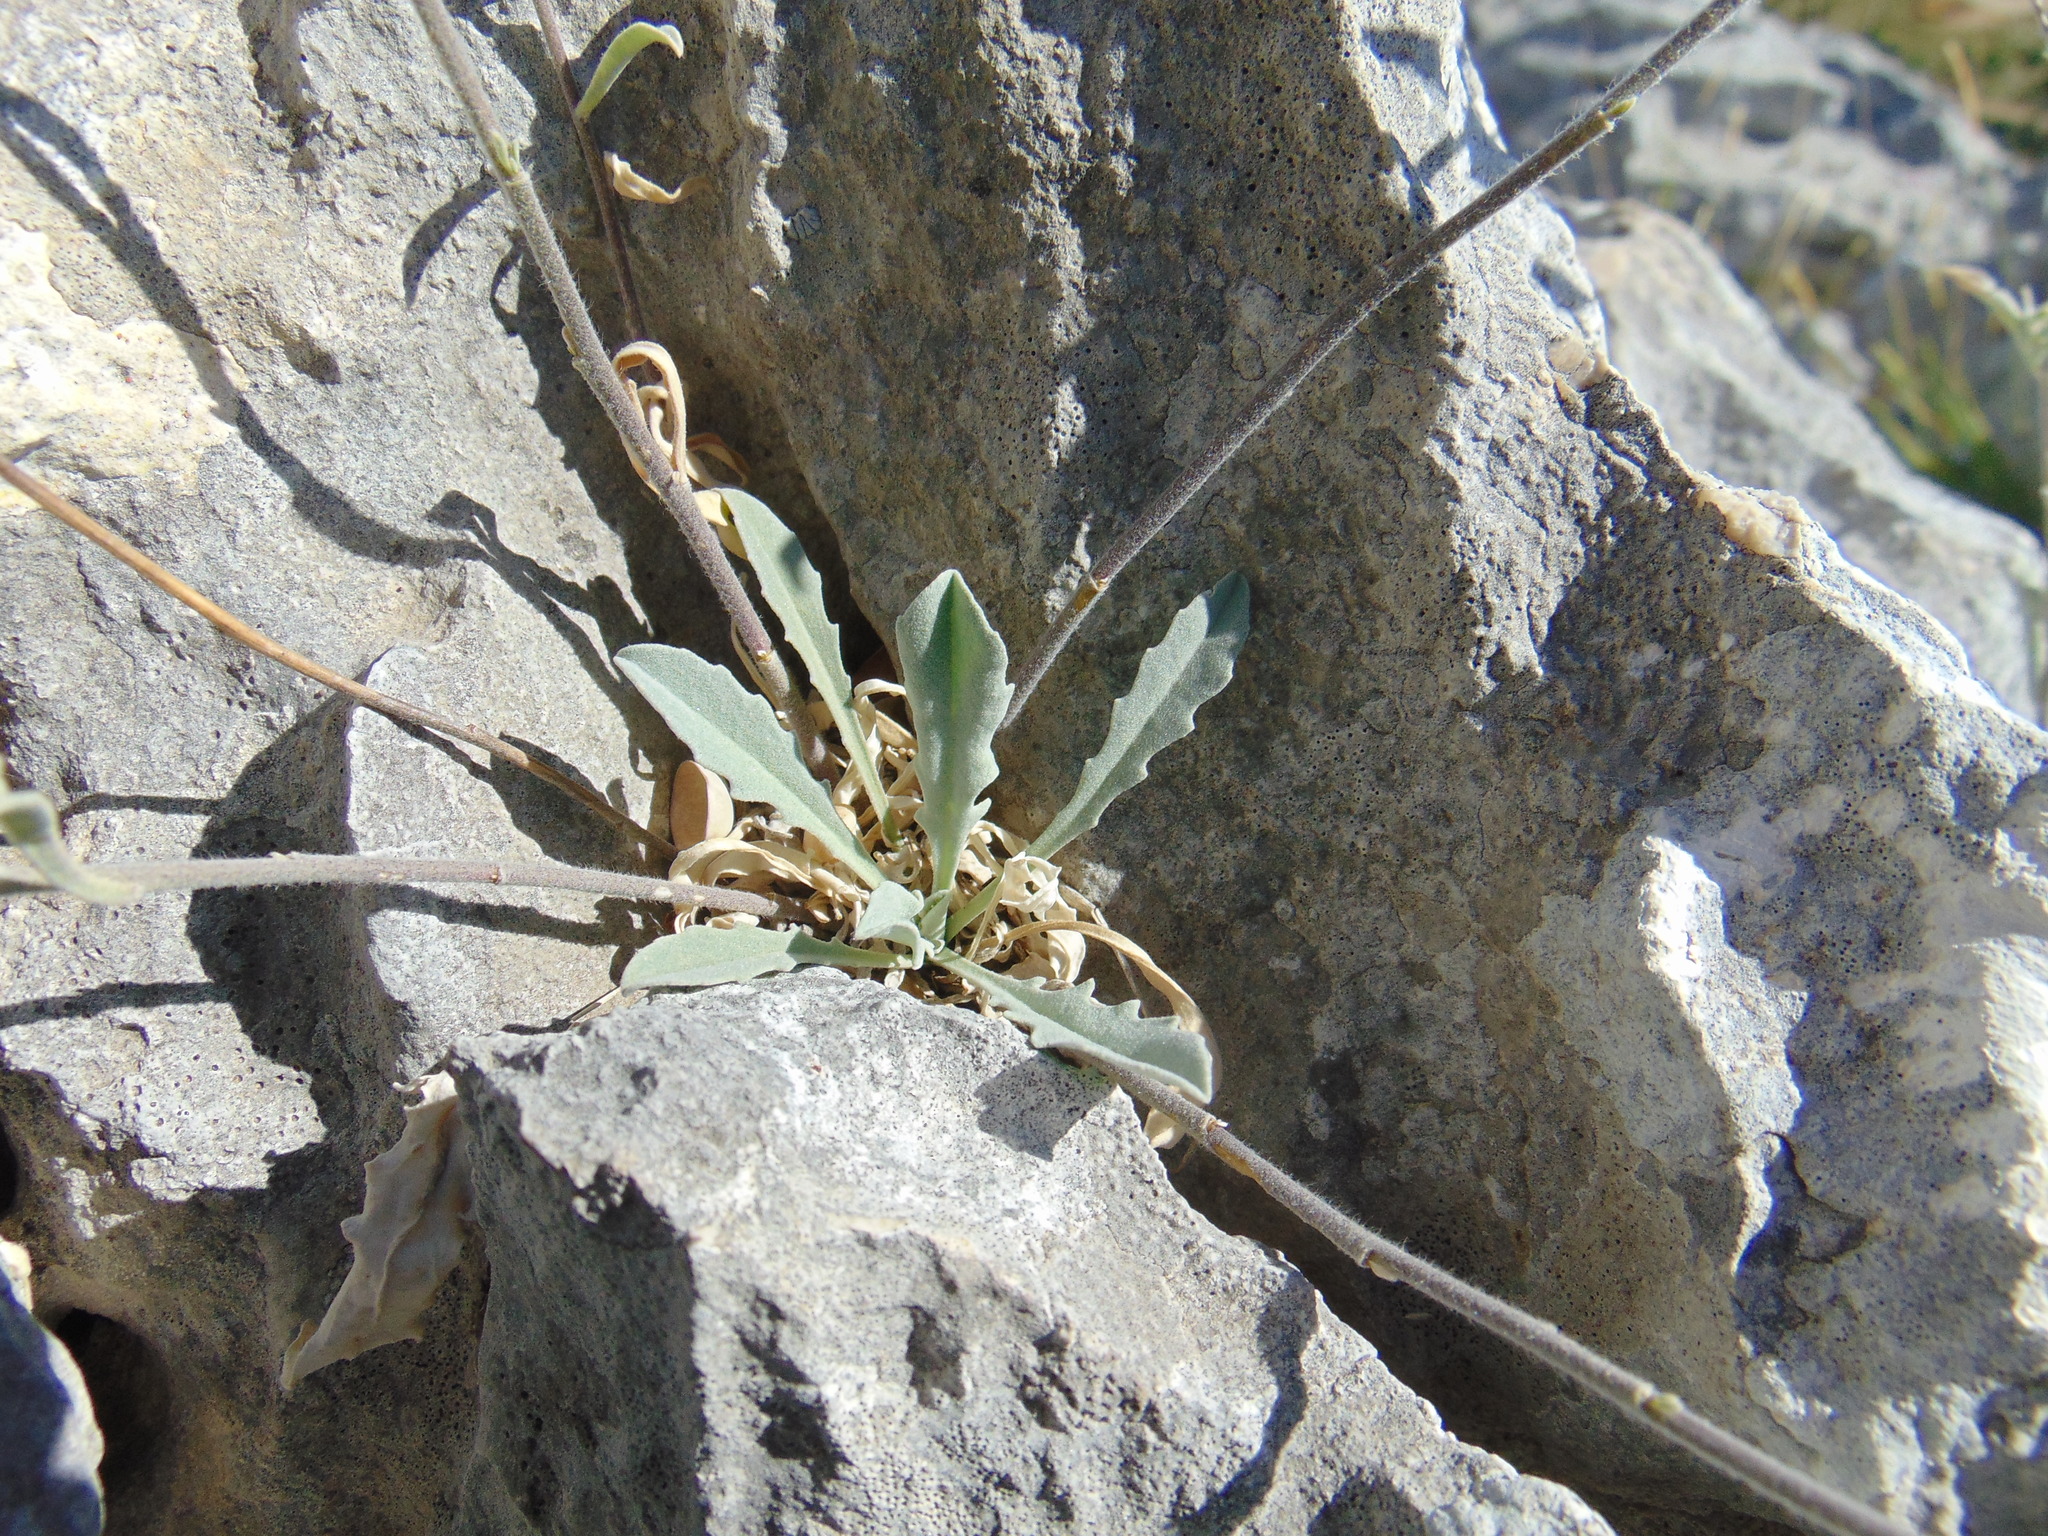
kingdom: Plantae
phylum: Tracheophyta
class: Magnoliopsida
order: Brassicales
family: Brassicaceae
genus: Aurinia
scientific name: Aurinia sinuata
